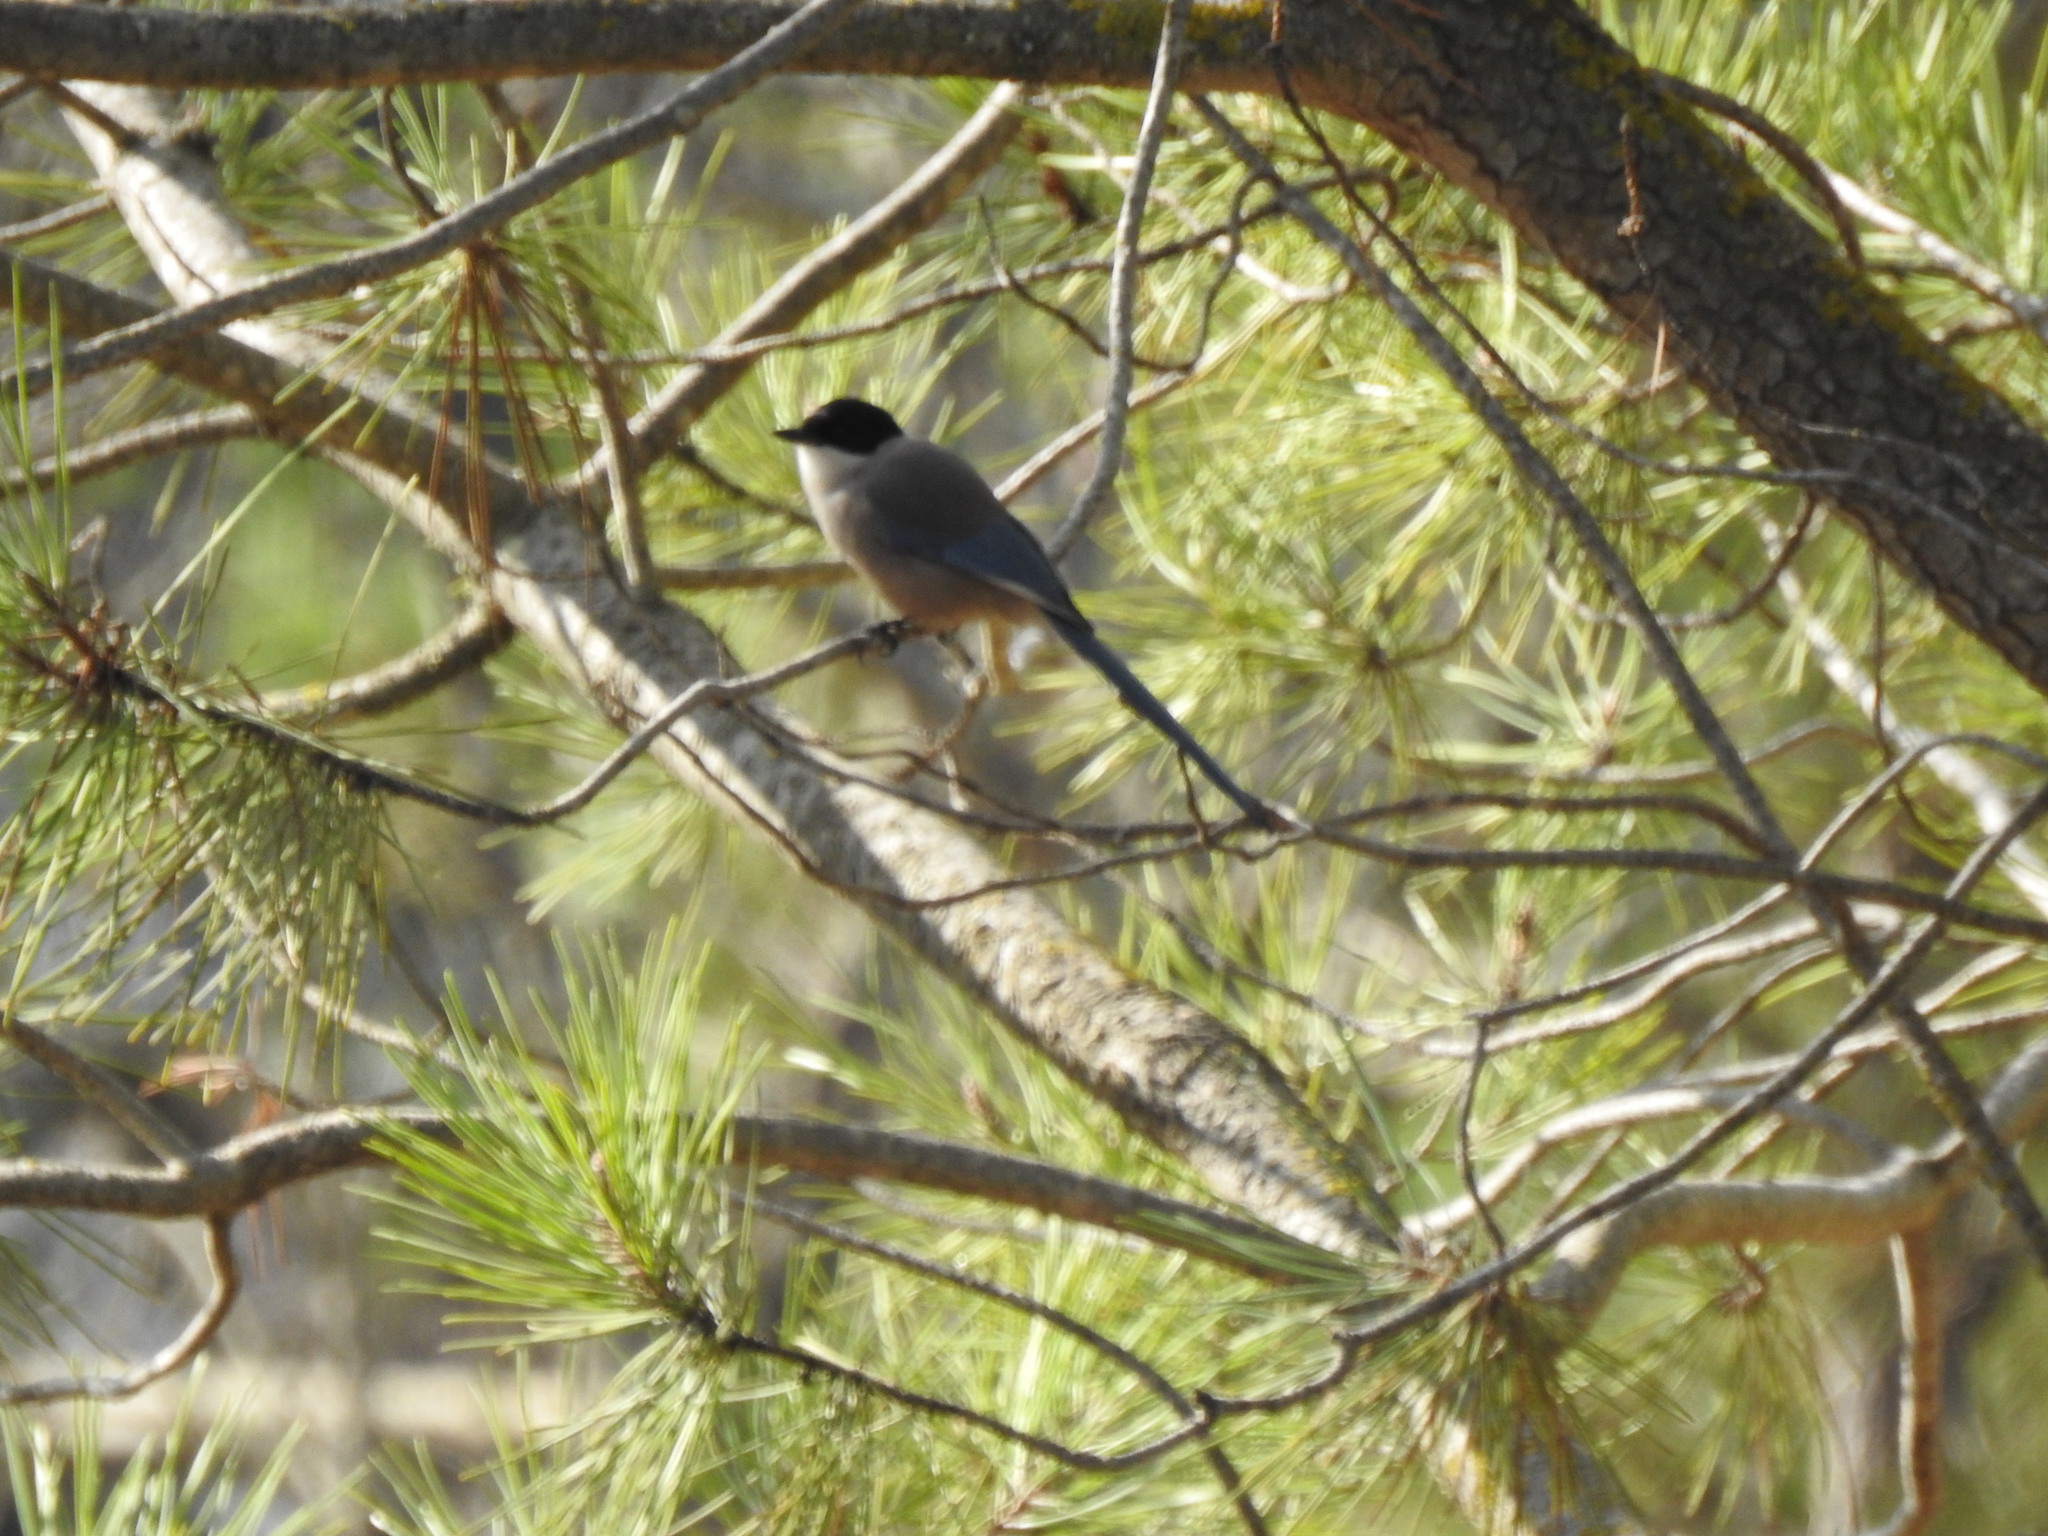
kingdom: Animalia
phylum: Chordata
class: Aves
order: Passeriformes
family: Corvidae
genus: Cyanopica
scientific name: Cyanopica cooki
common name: Iberian magpie
